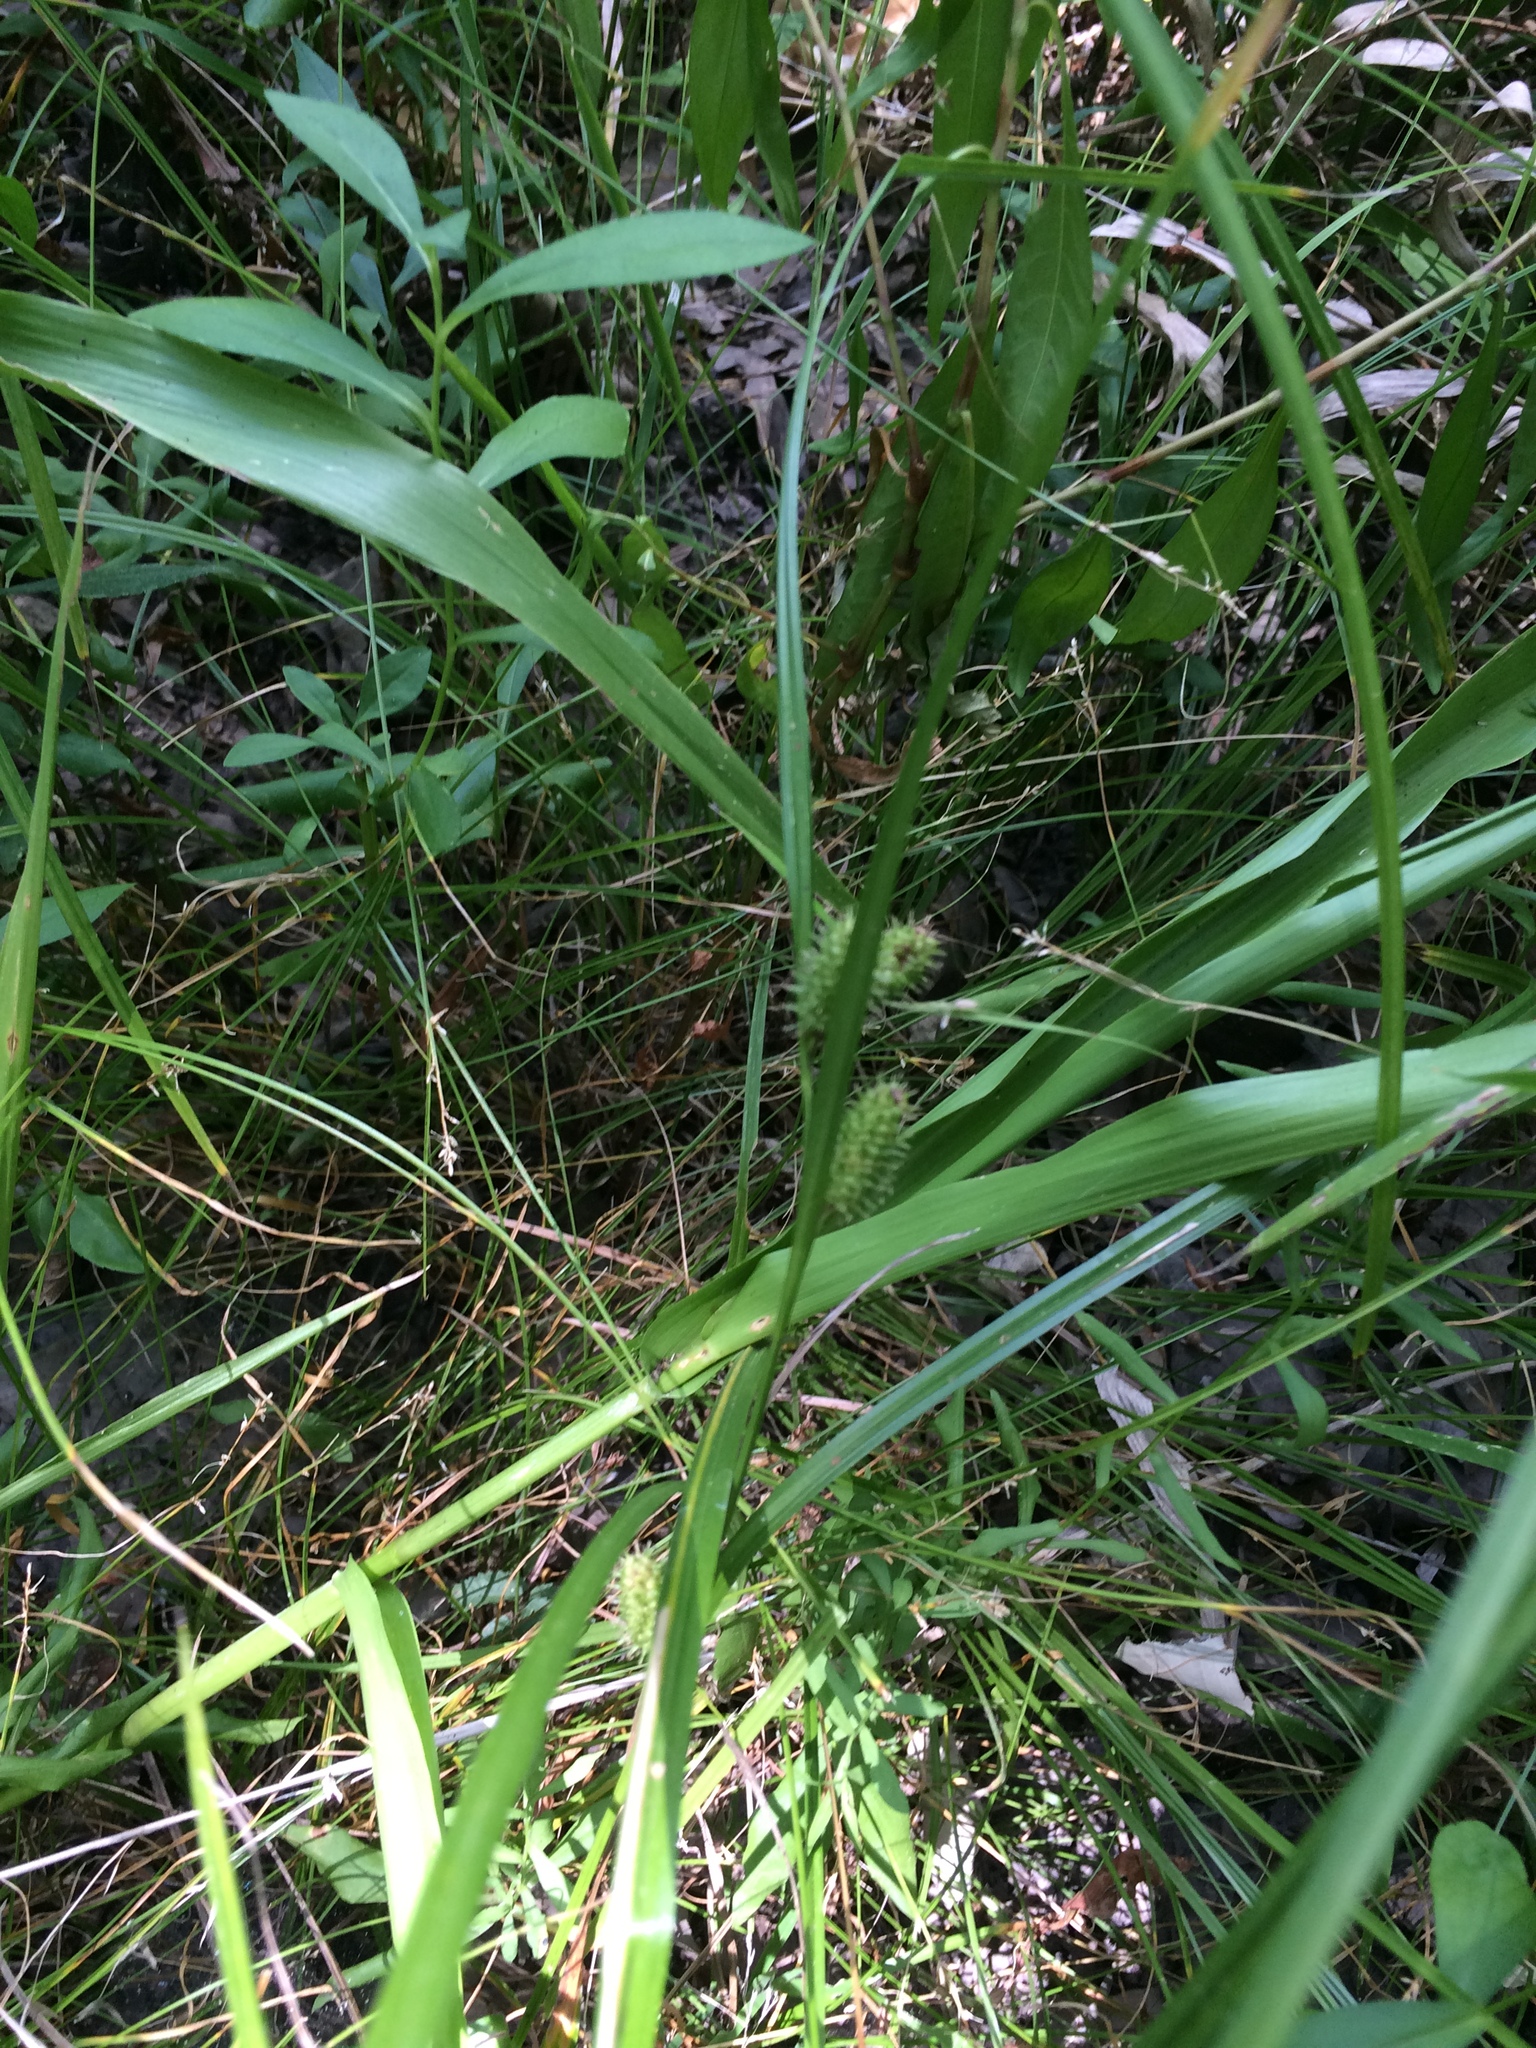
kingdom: Plantae
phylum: Tracheophyta
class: Liliopsida
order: Poales
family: Cyperaceae
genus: Carex
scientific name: Carex aureolensis
